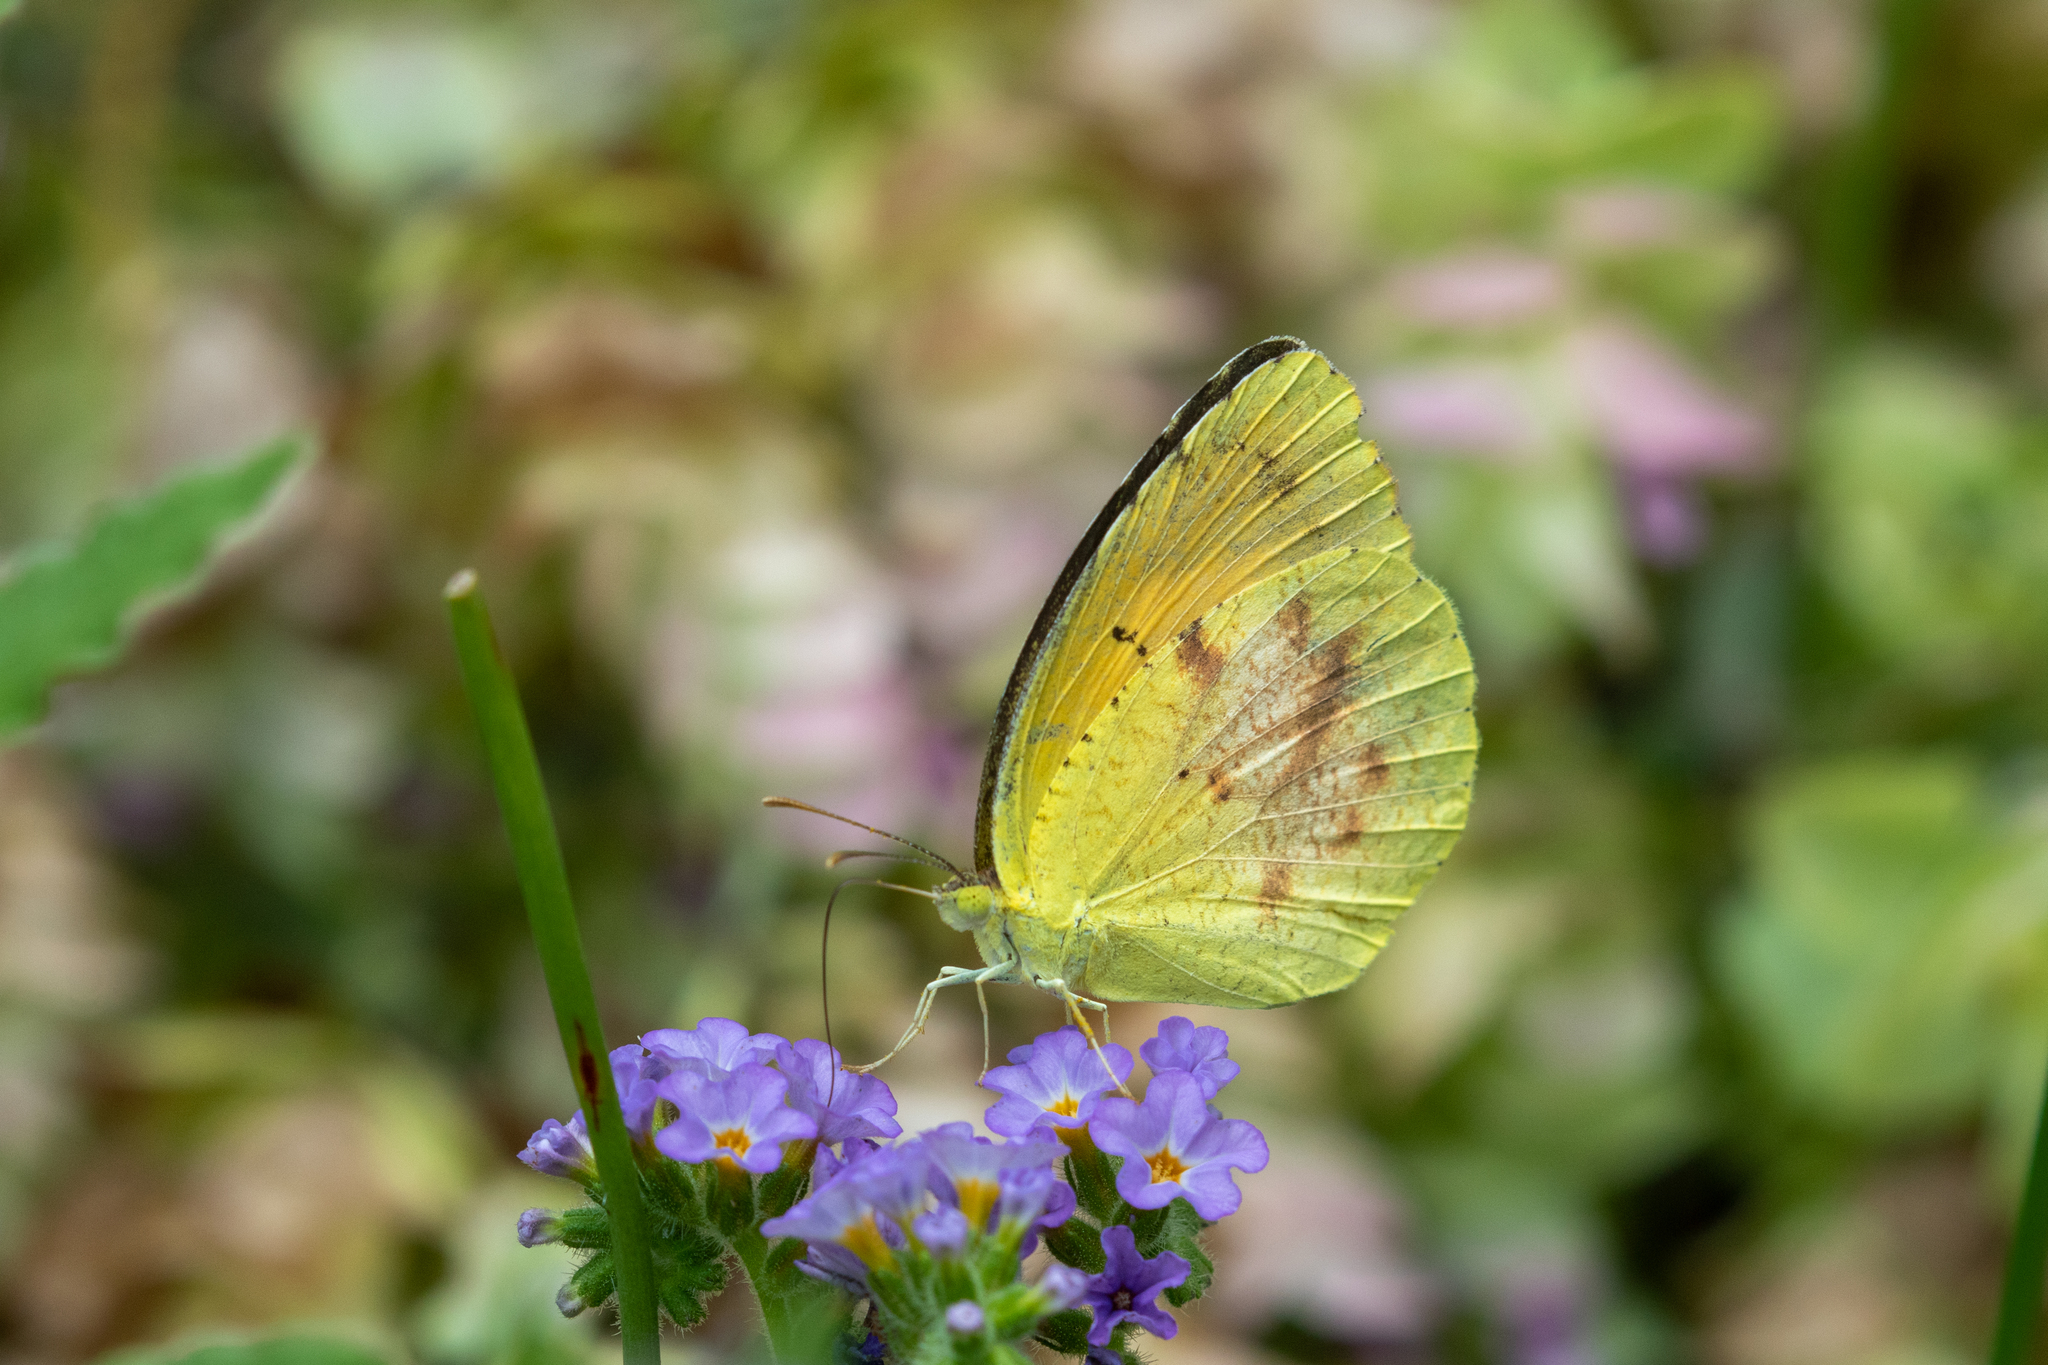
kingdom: Animalia
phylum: Arthropoda
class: Insecta
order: Lepidoptera
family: Pieridae
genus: Abaeis
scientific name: Abaeis nicippe
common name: Sleepy orange
